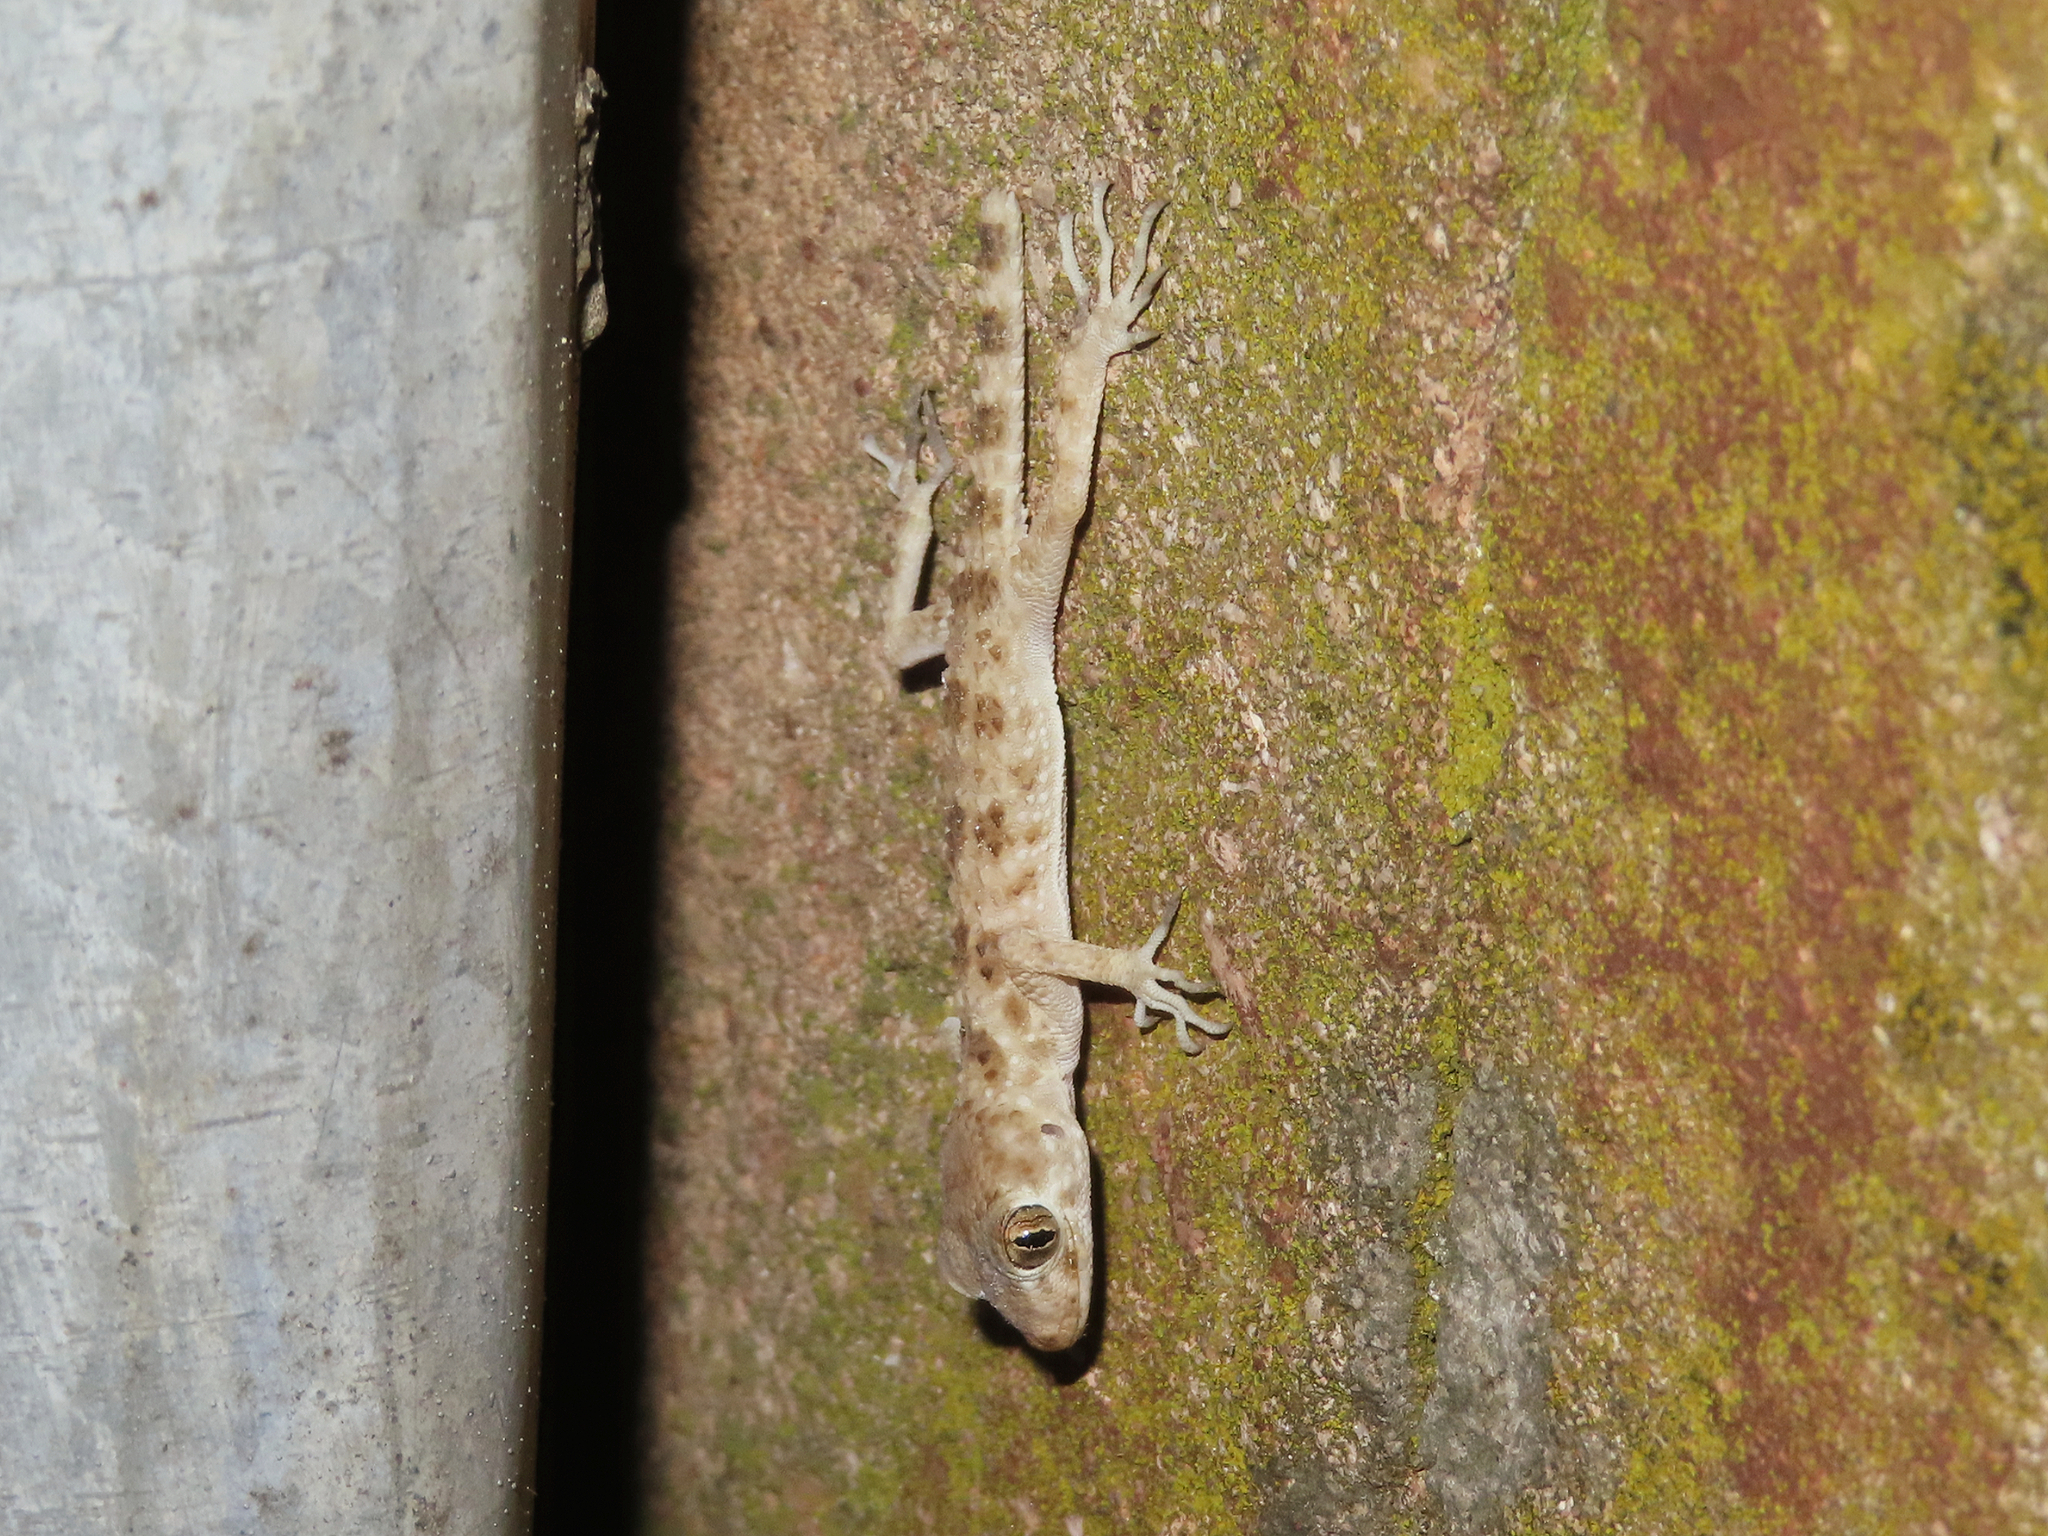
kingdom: Animalia
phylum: Chordata
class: Squamata
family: Gekkonidae
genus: Tenuidactylus
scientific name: Tenuidactylus caspius
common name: Caspian bent-toed gecko
